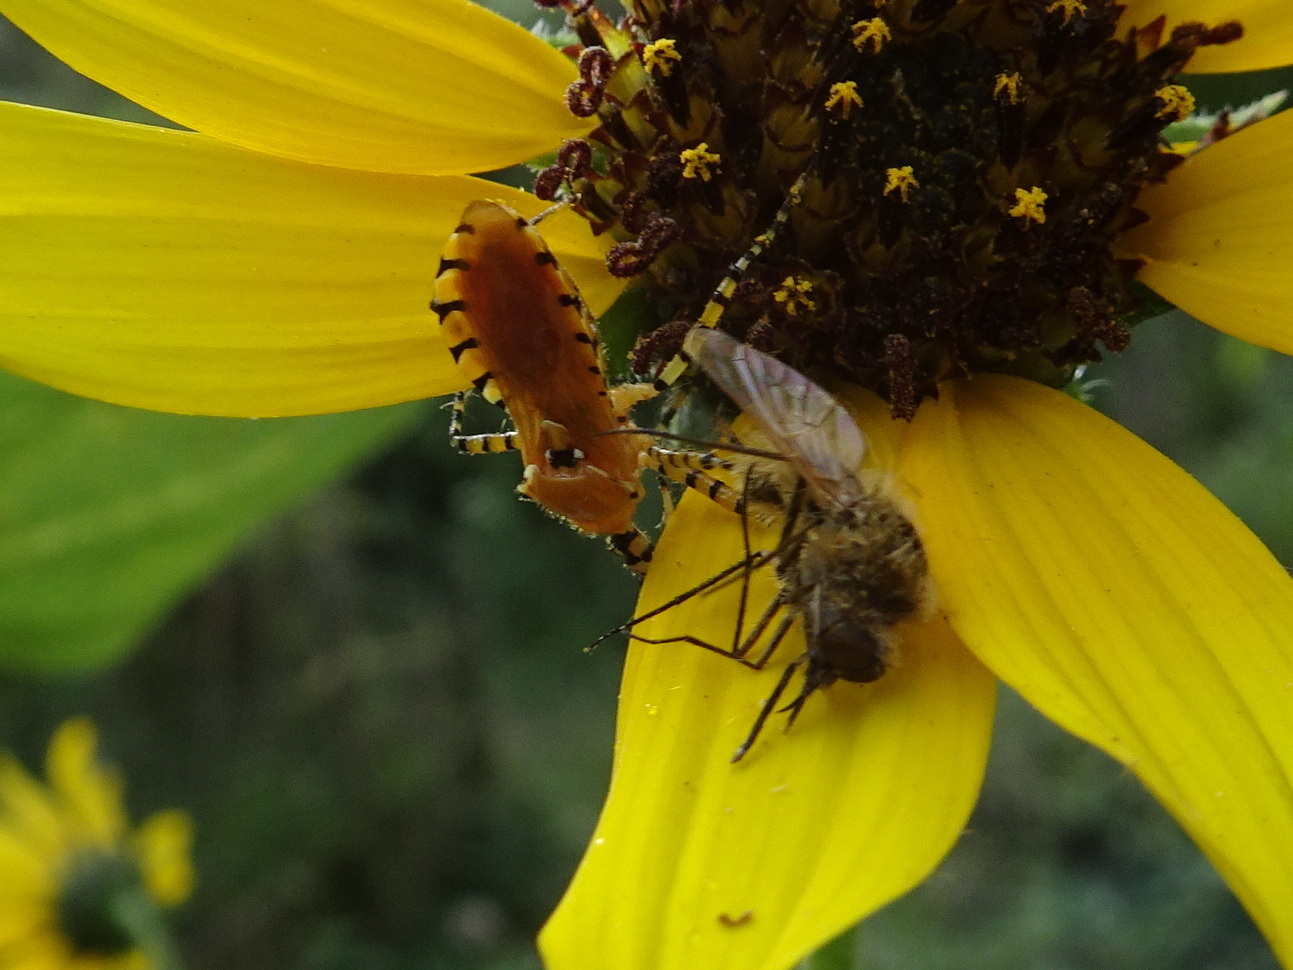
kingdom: Animalia
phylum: Arthropoda
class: Insecta
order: Hemiptera
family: Reduviidae
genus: Pselliopus
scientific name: Pselliopus barberi
